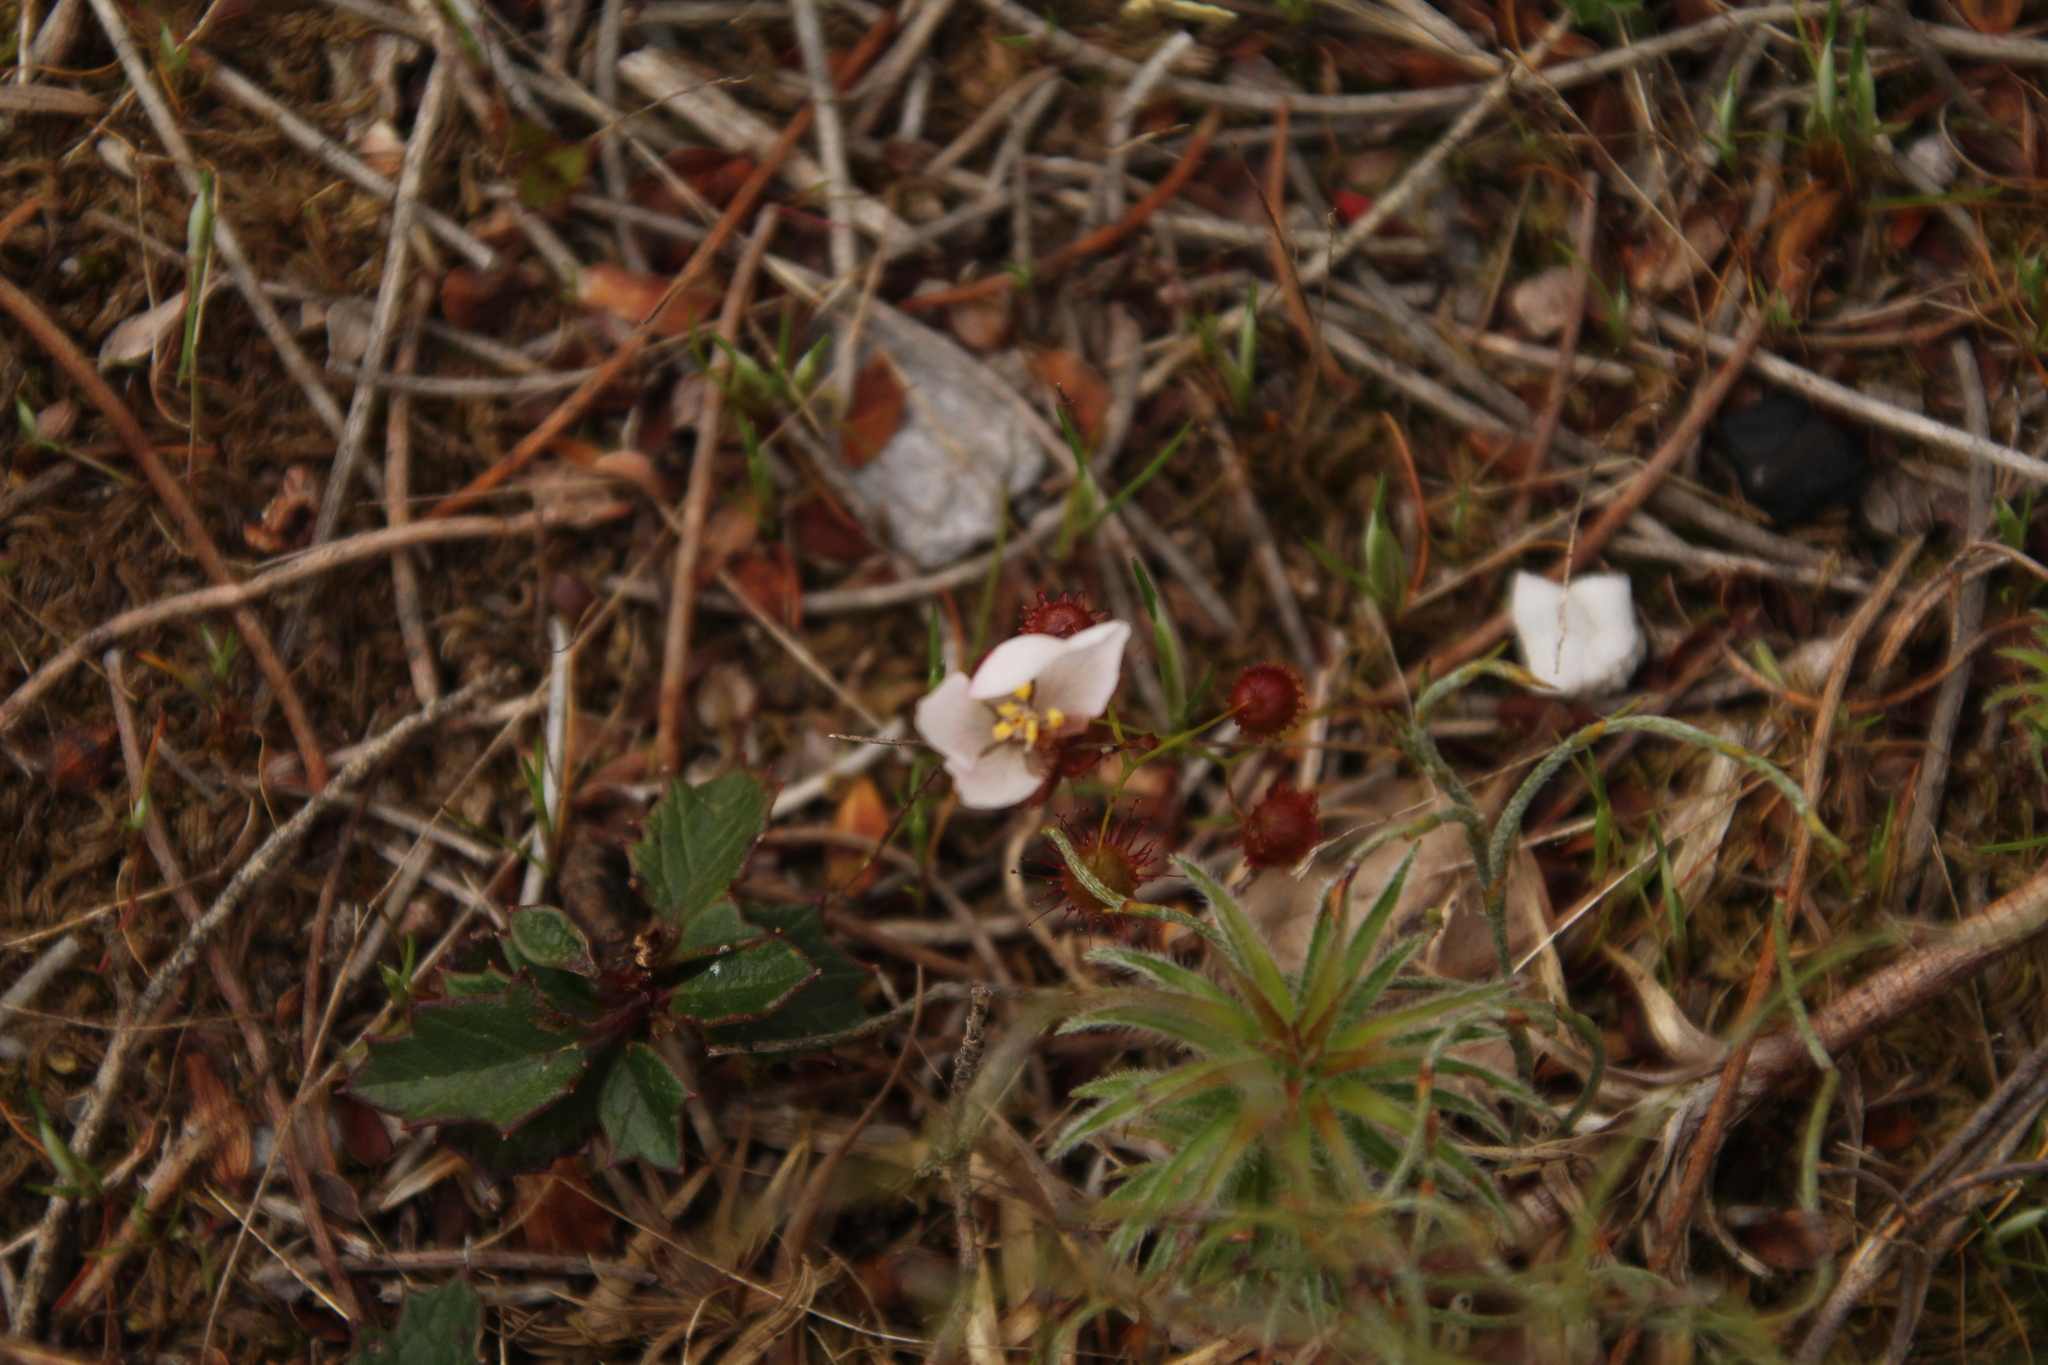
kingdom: Plantae
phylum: Tracheophyta
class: Magnoliopsida
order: Caryophyllales
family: Droseraceae
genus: Drosera
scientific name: Drosera huegelii
